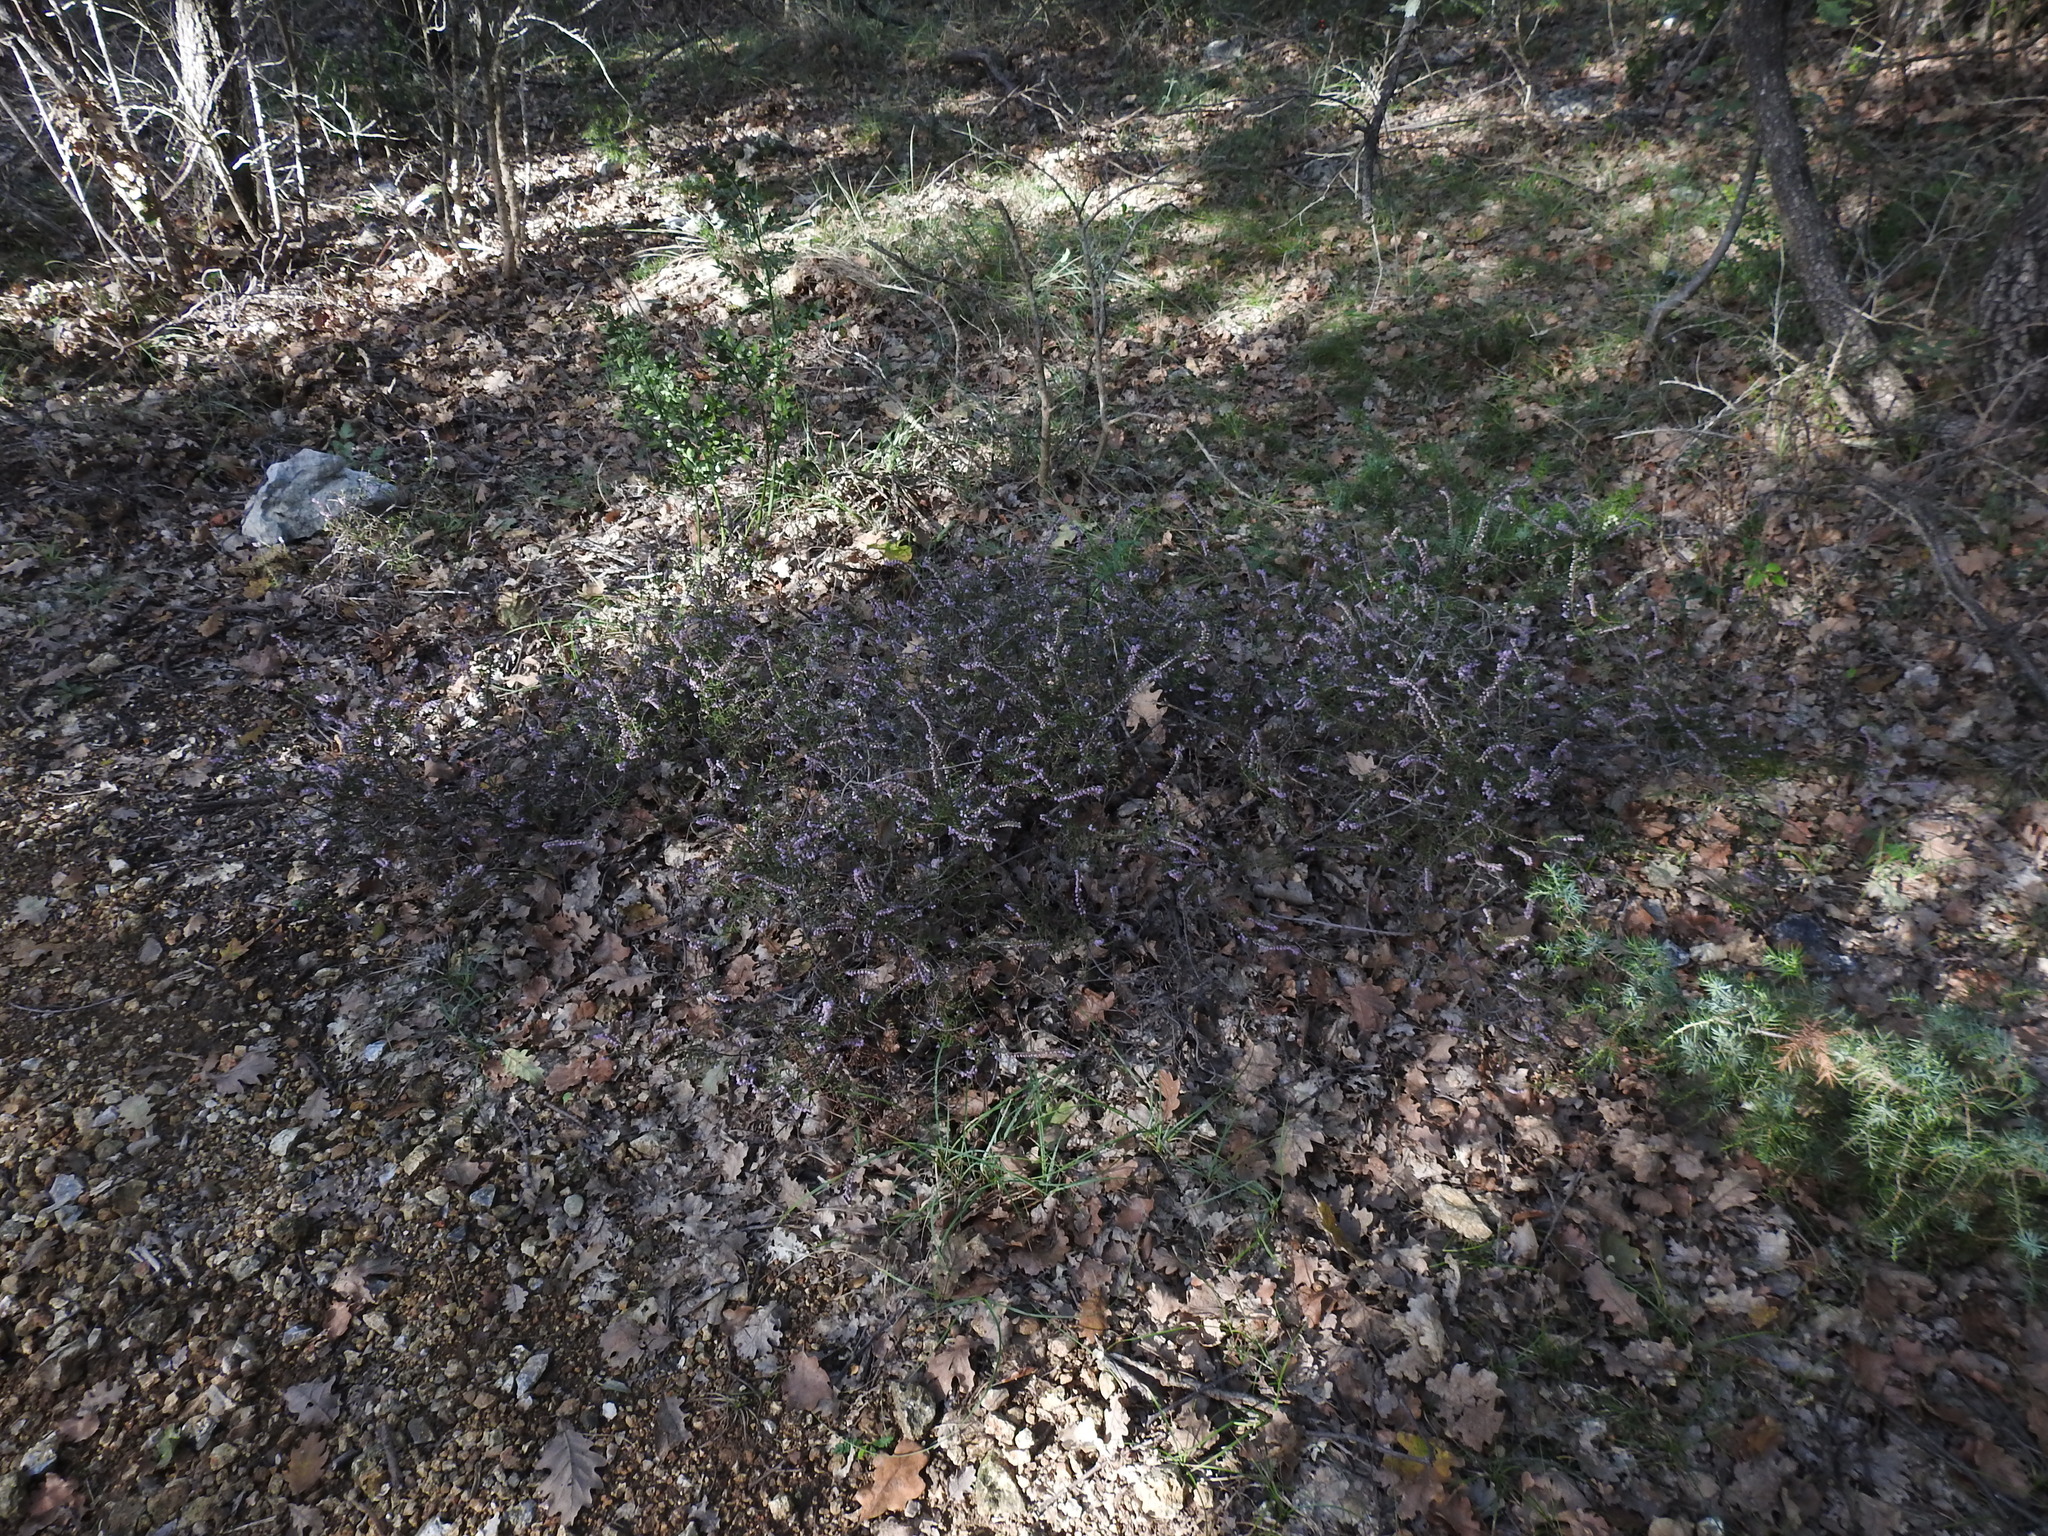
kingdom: Plantae
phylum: Tracheophyta
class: Magnoliopsida
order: Ericales
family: Ericaceae
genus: Calluna
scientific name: Calluna vulgaris
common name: Heather
